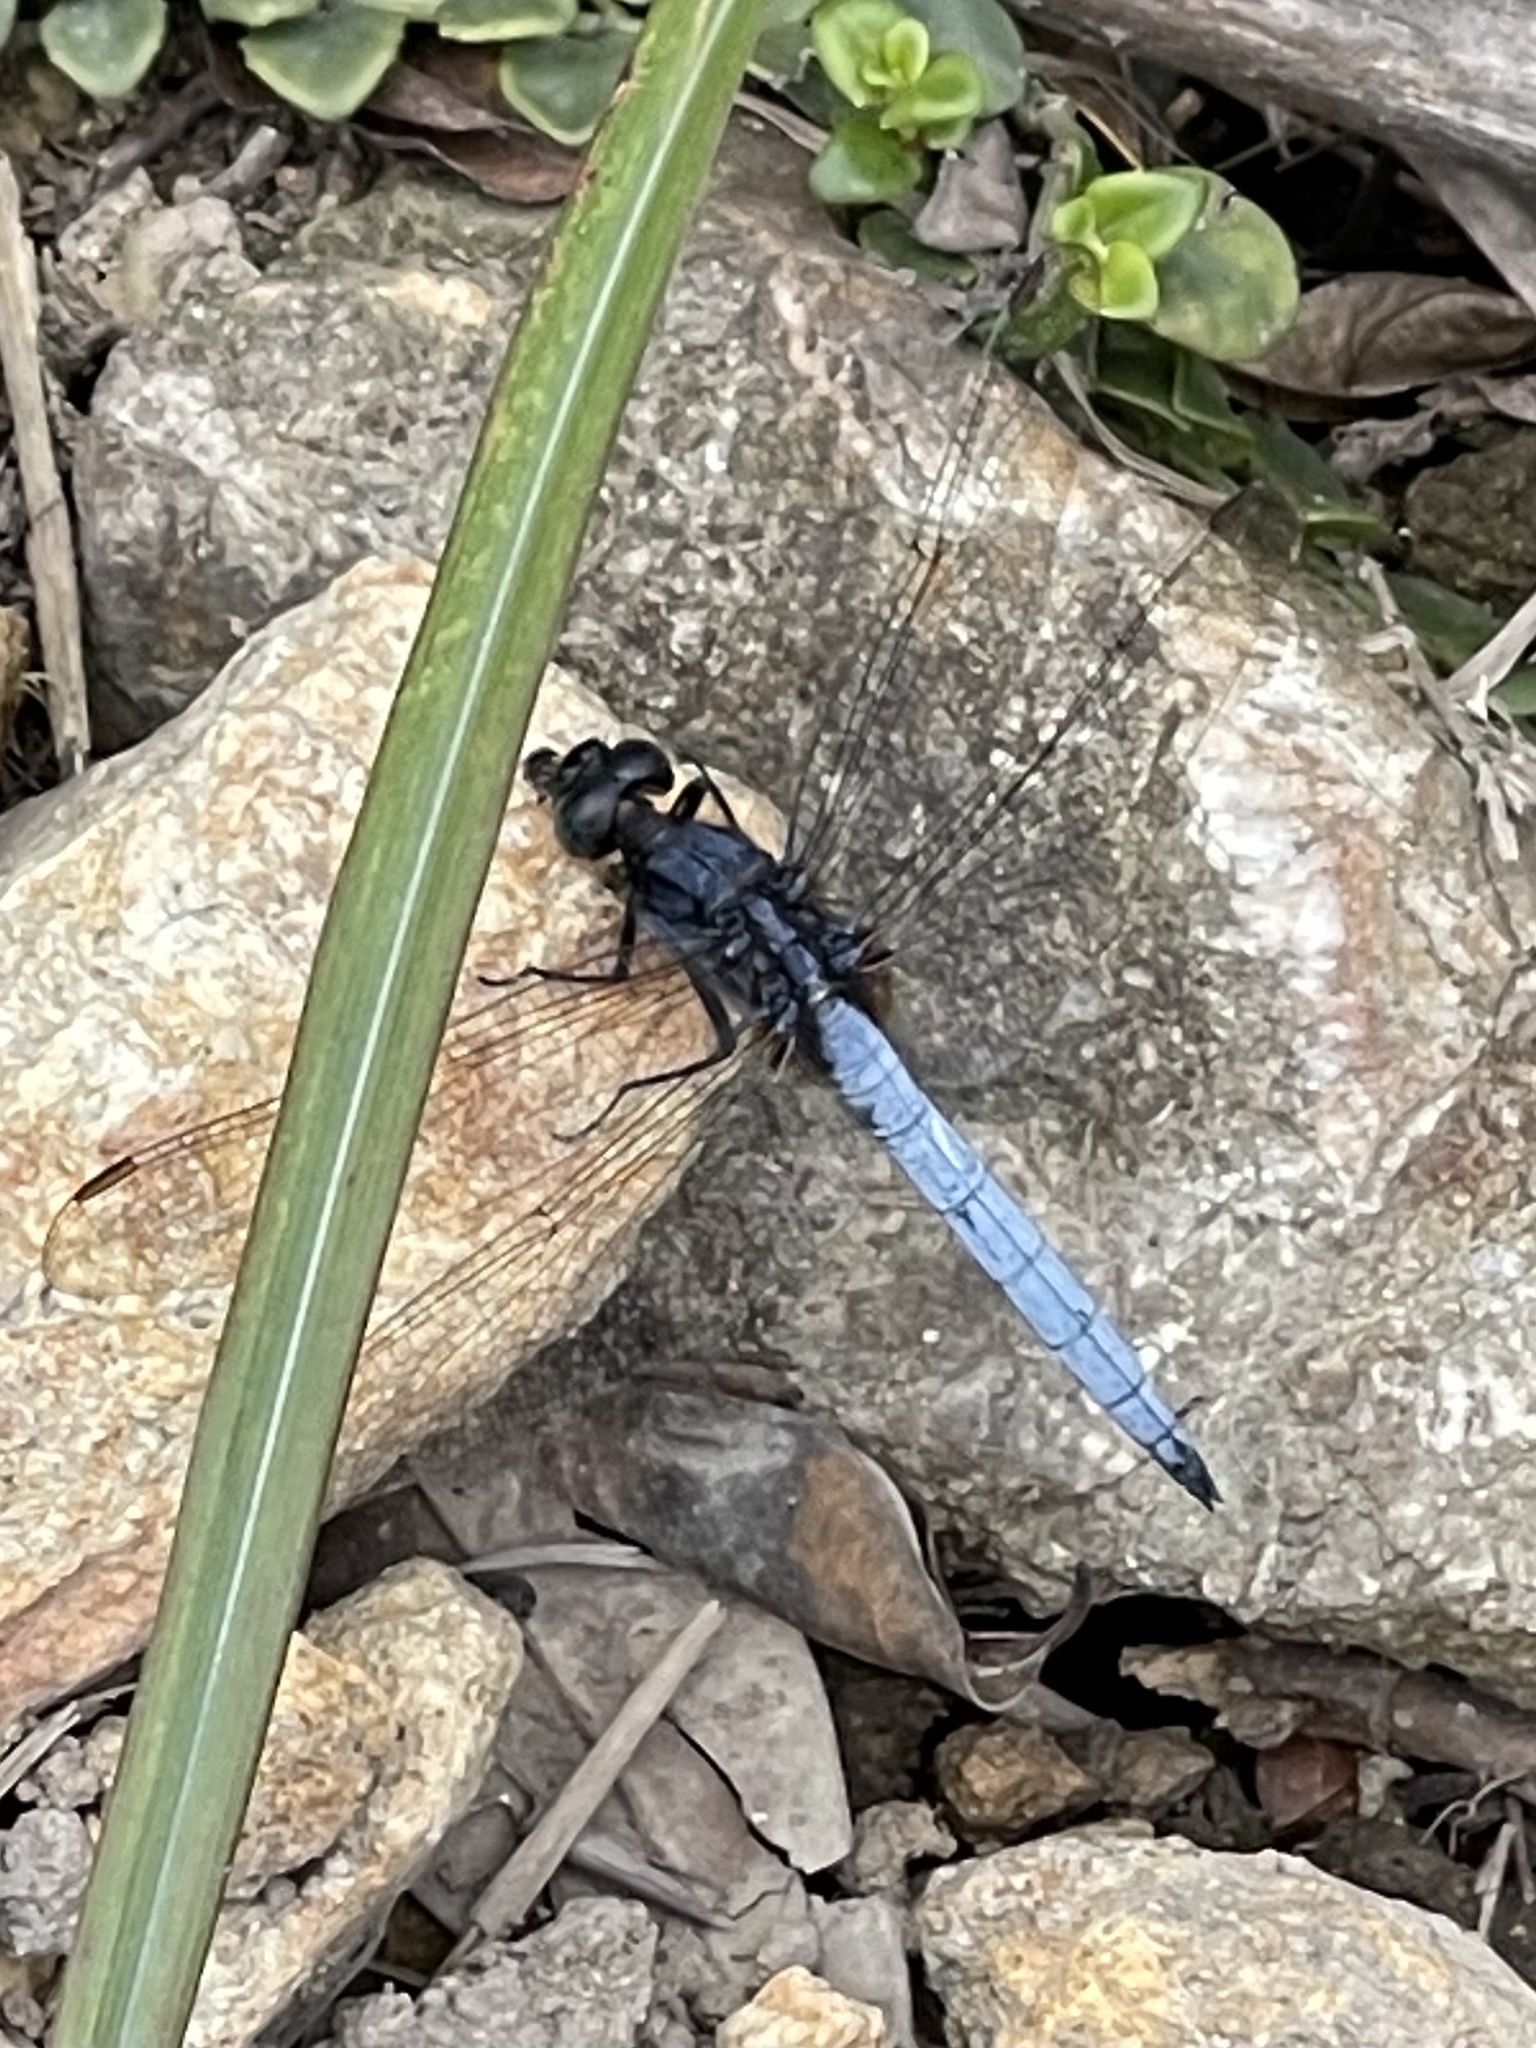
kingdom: Animalia
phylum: Arthropoda
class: Insecta
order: Odonata
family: Libellulidae
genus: Orthetrum
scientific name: Orthetrum glaucum
